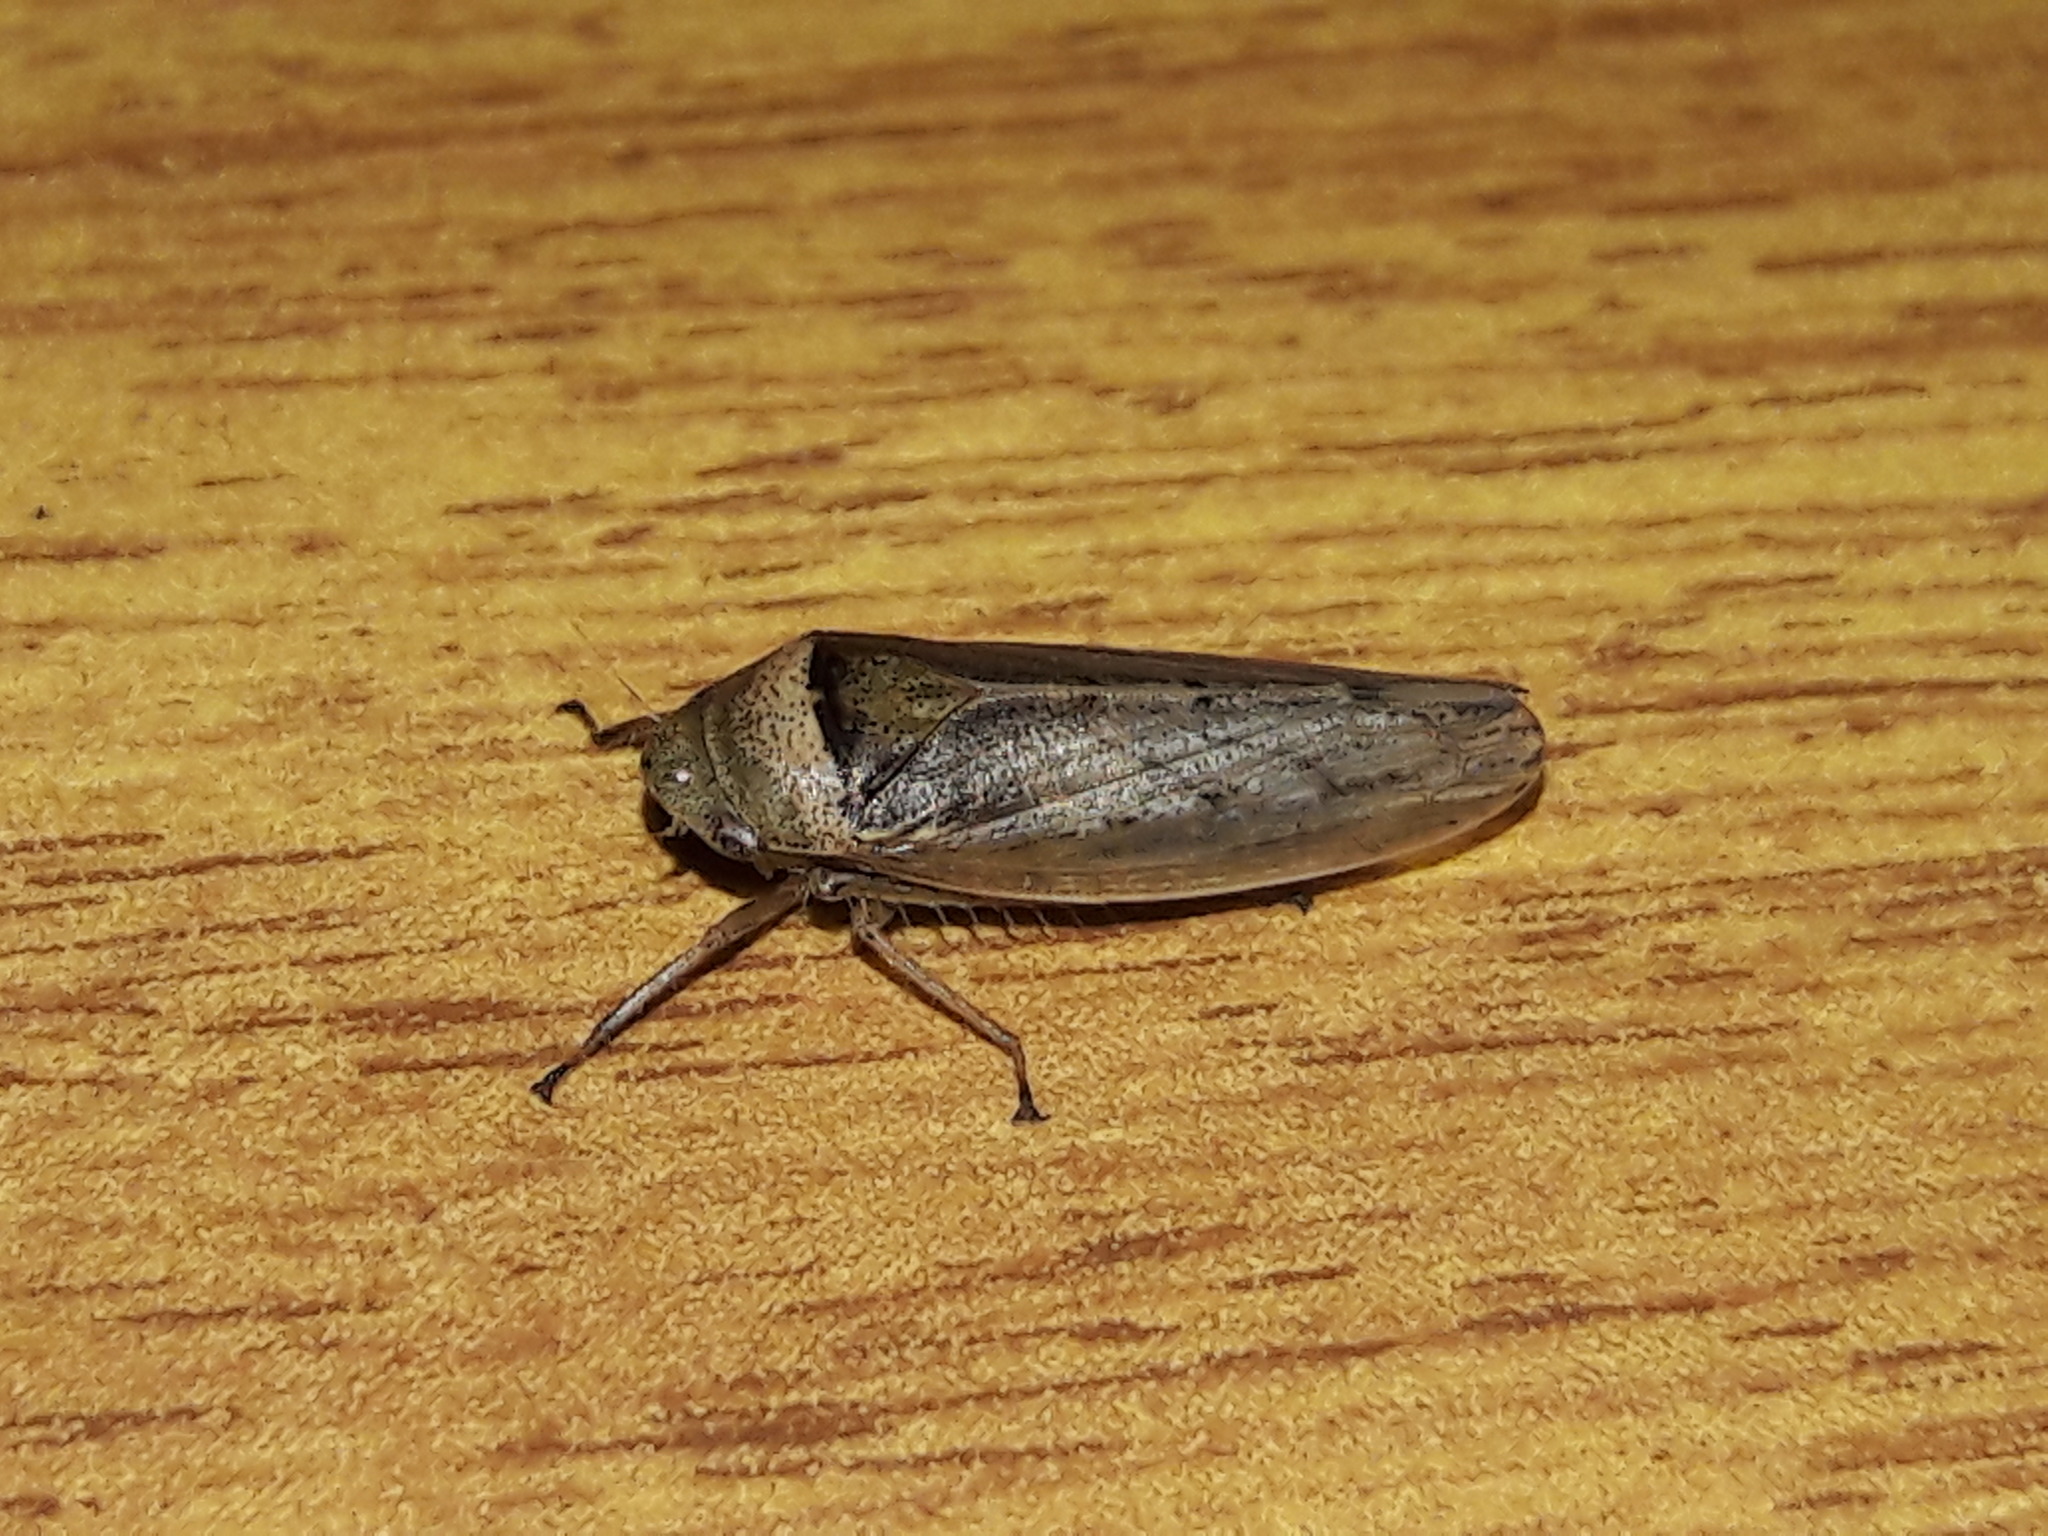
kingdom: Animalia
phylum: Arthropoda
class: Insecta
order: Hemiptera
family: Cicadellidae
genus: Sordana
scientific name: Sordana sordida
